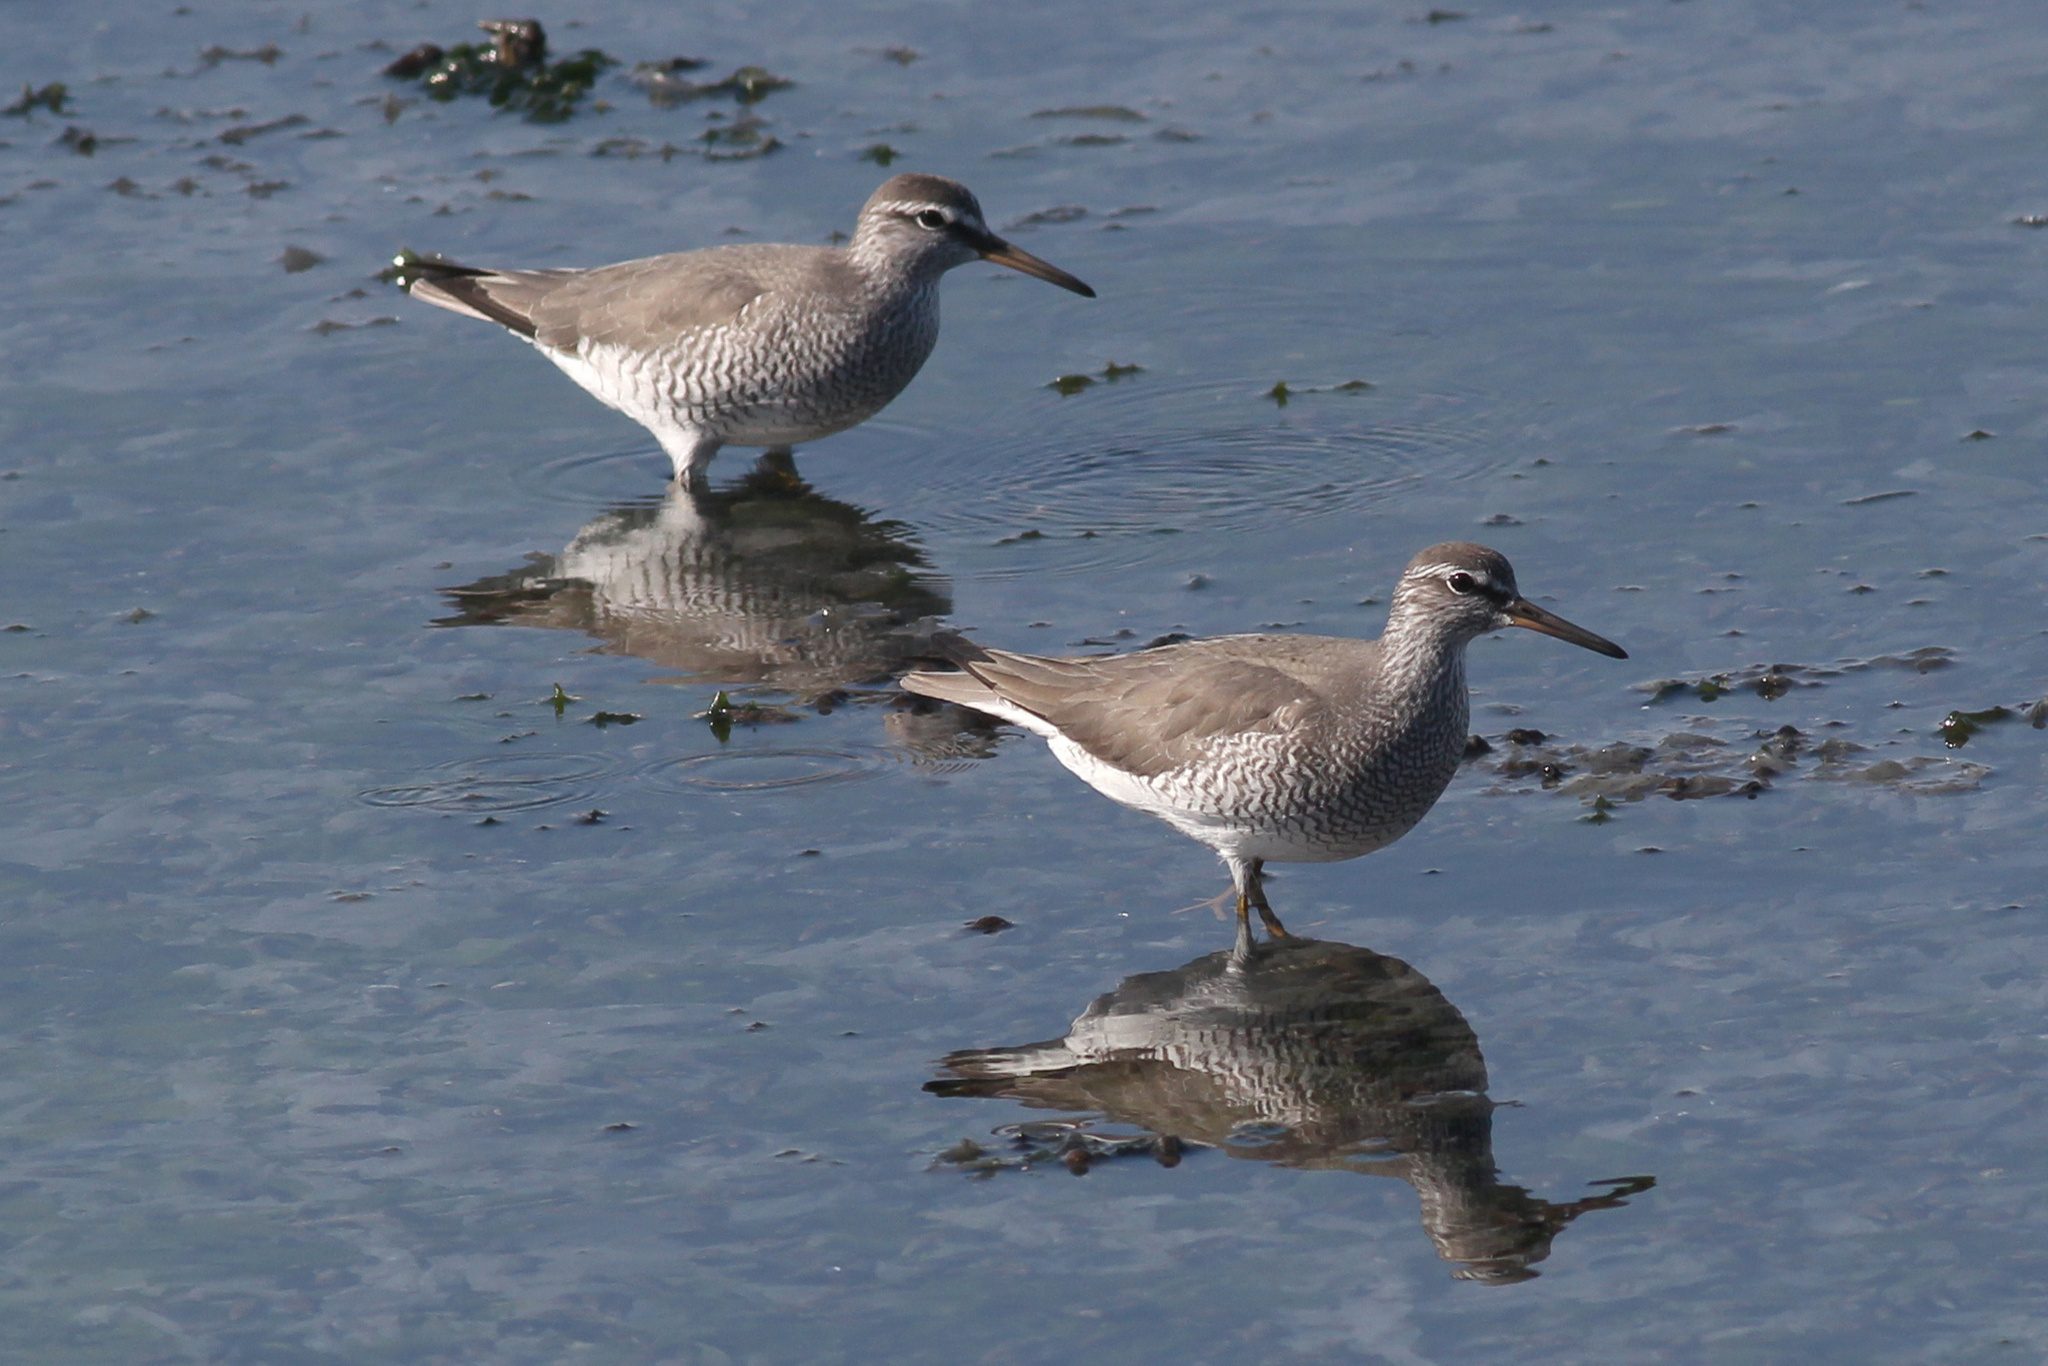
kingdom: Animalia
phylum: Chordata
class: Aves
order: Charadriiformes
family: Scolopacidae
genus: Tringa
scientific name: Tringa brevipes
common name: Grey-tailed tattler
